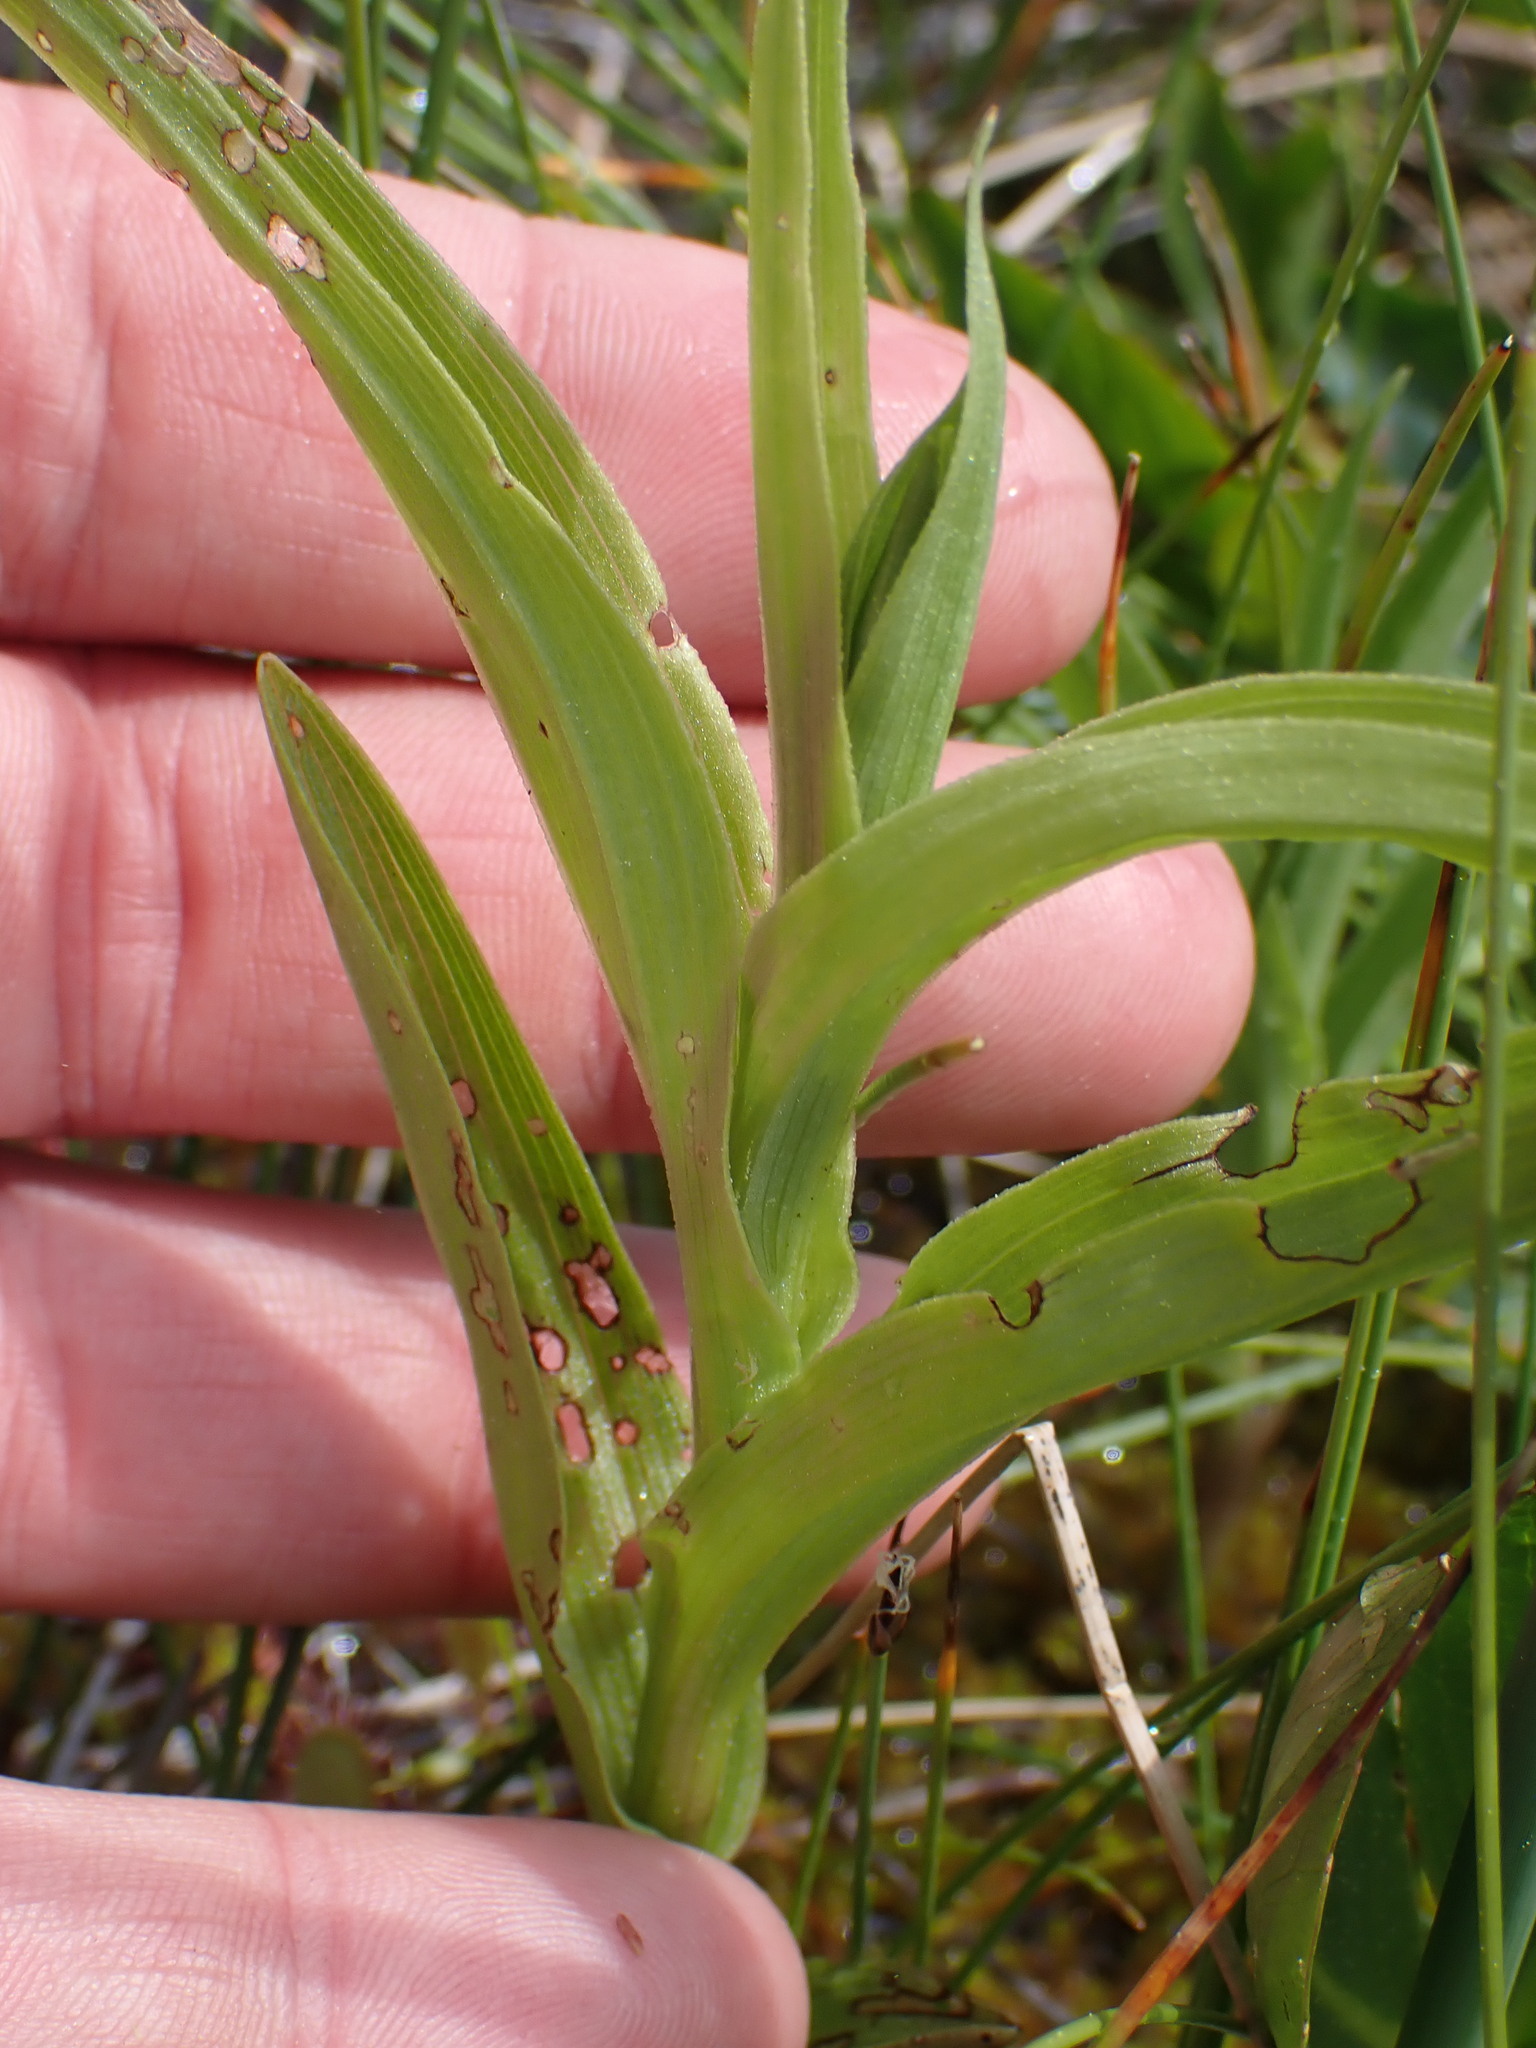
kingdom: Plantae
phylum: Tracheophyta
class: Liliopsida
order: Asparagales
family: Orchidaceae
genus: Epipactis
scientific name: Epipactis gigantea
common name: Chatterbox
